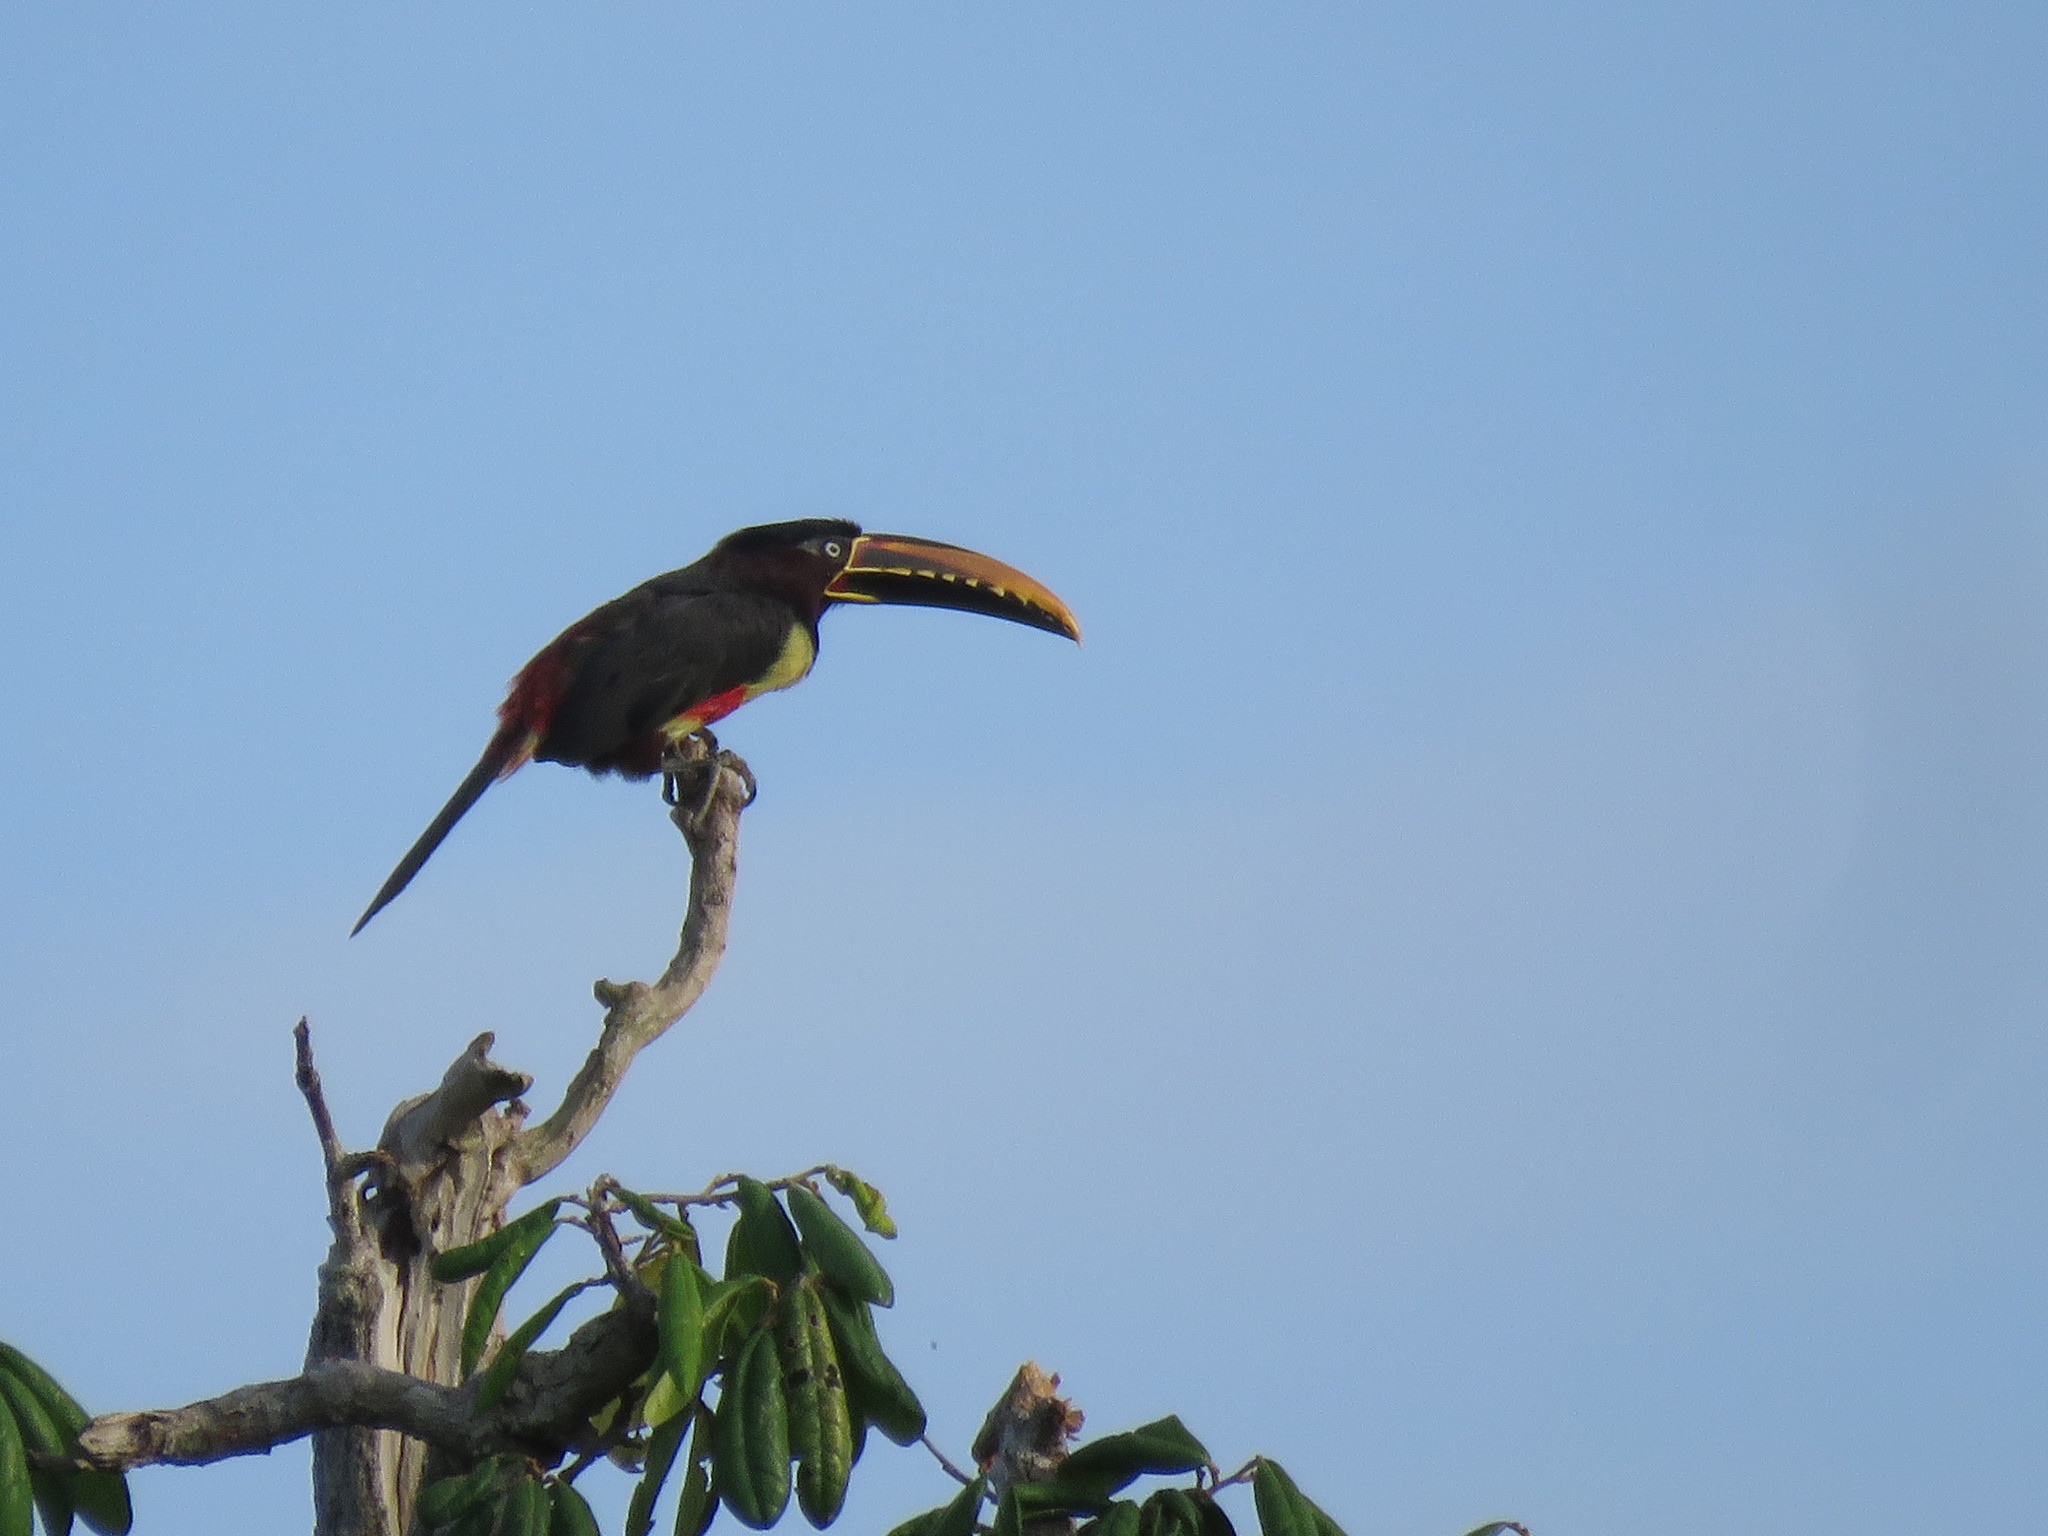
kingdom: Animalia
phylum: Chordata
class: Aves
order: Piciformes
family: Ramphastidae
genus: Pteroglossus
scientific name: Pteroglossus castanotis
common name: Chestnut-eared aracari
